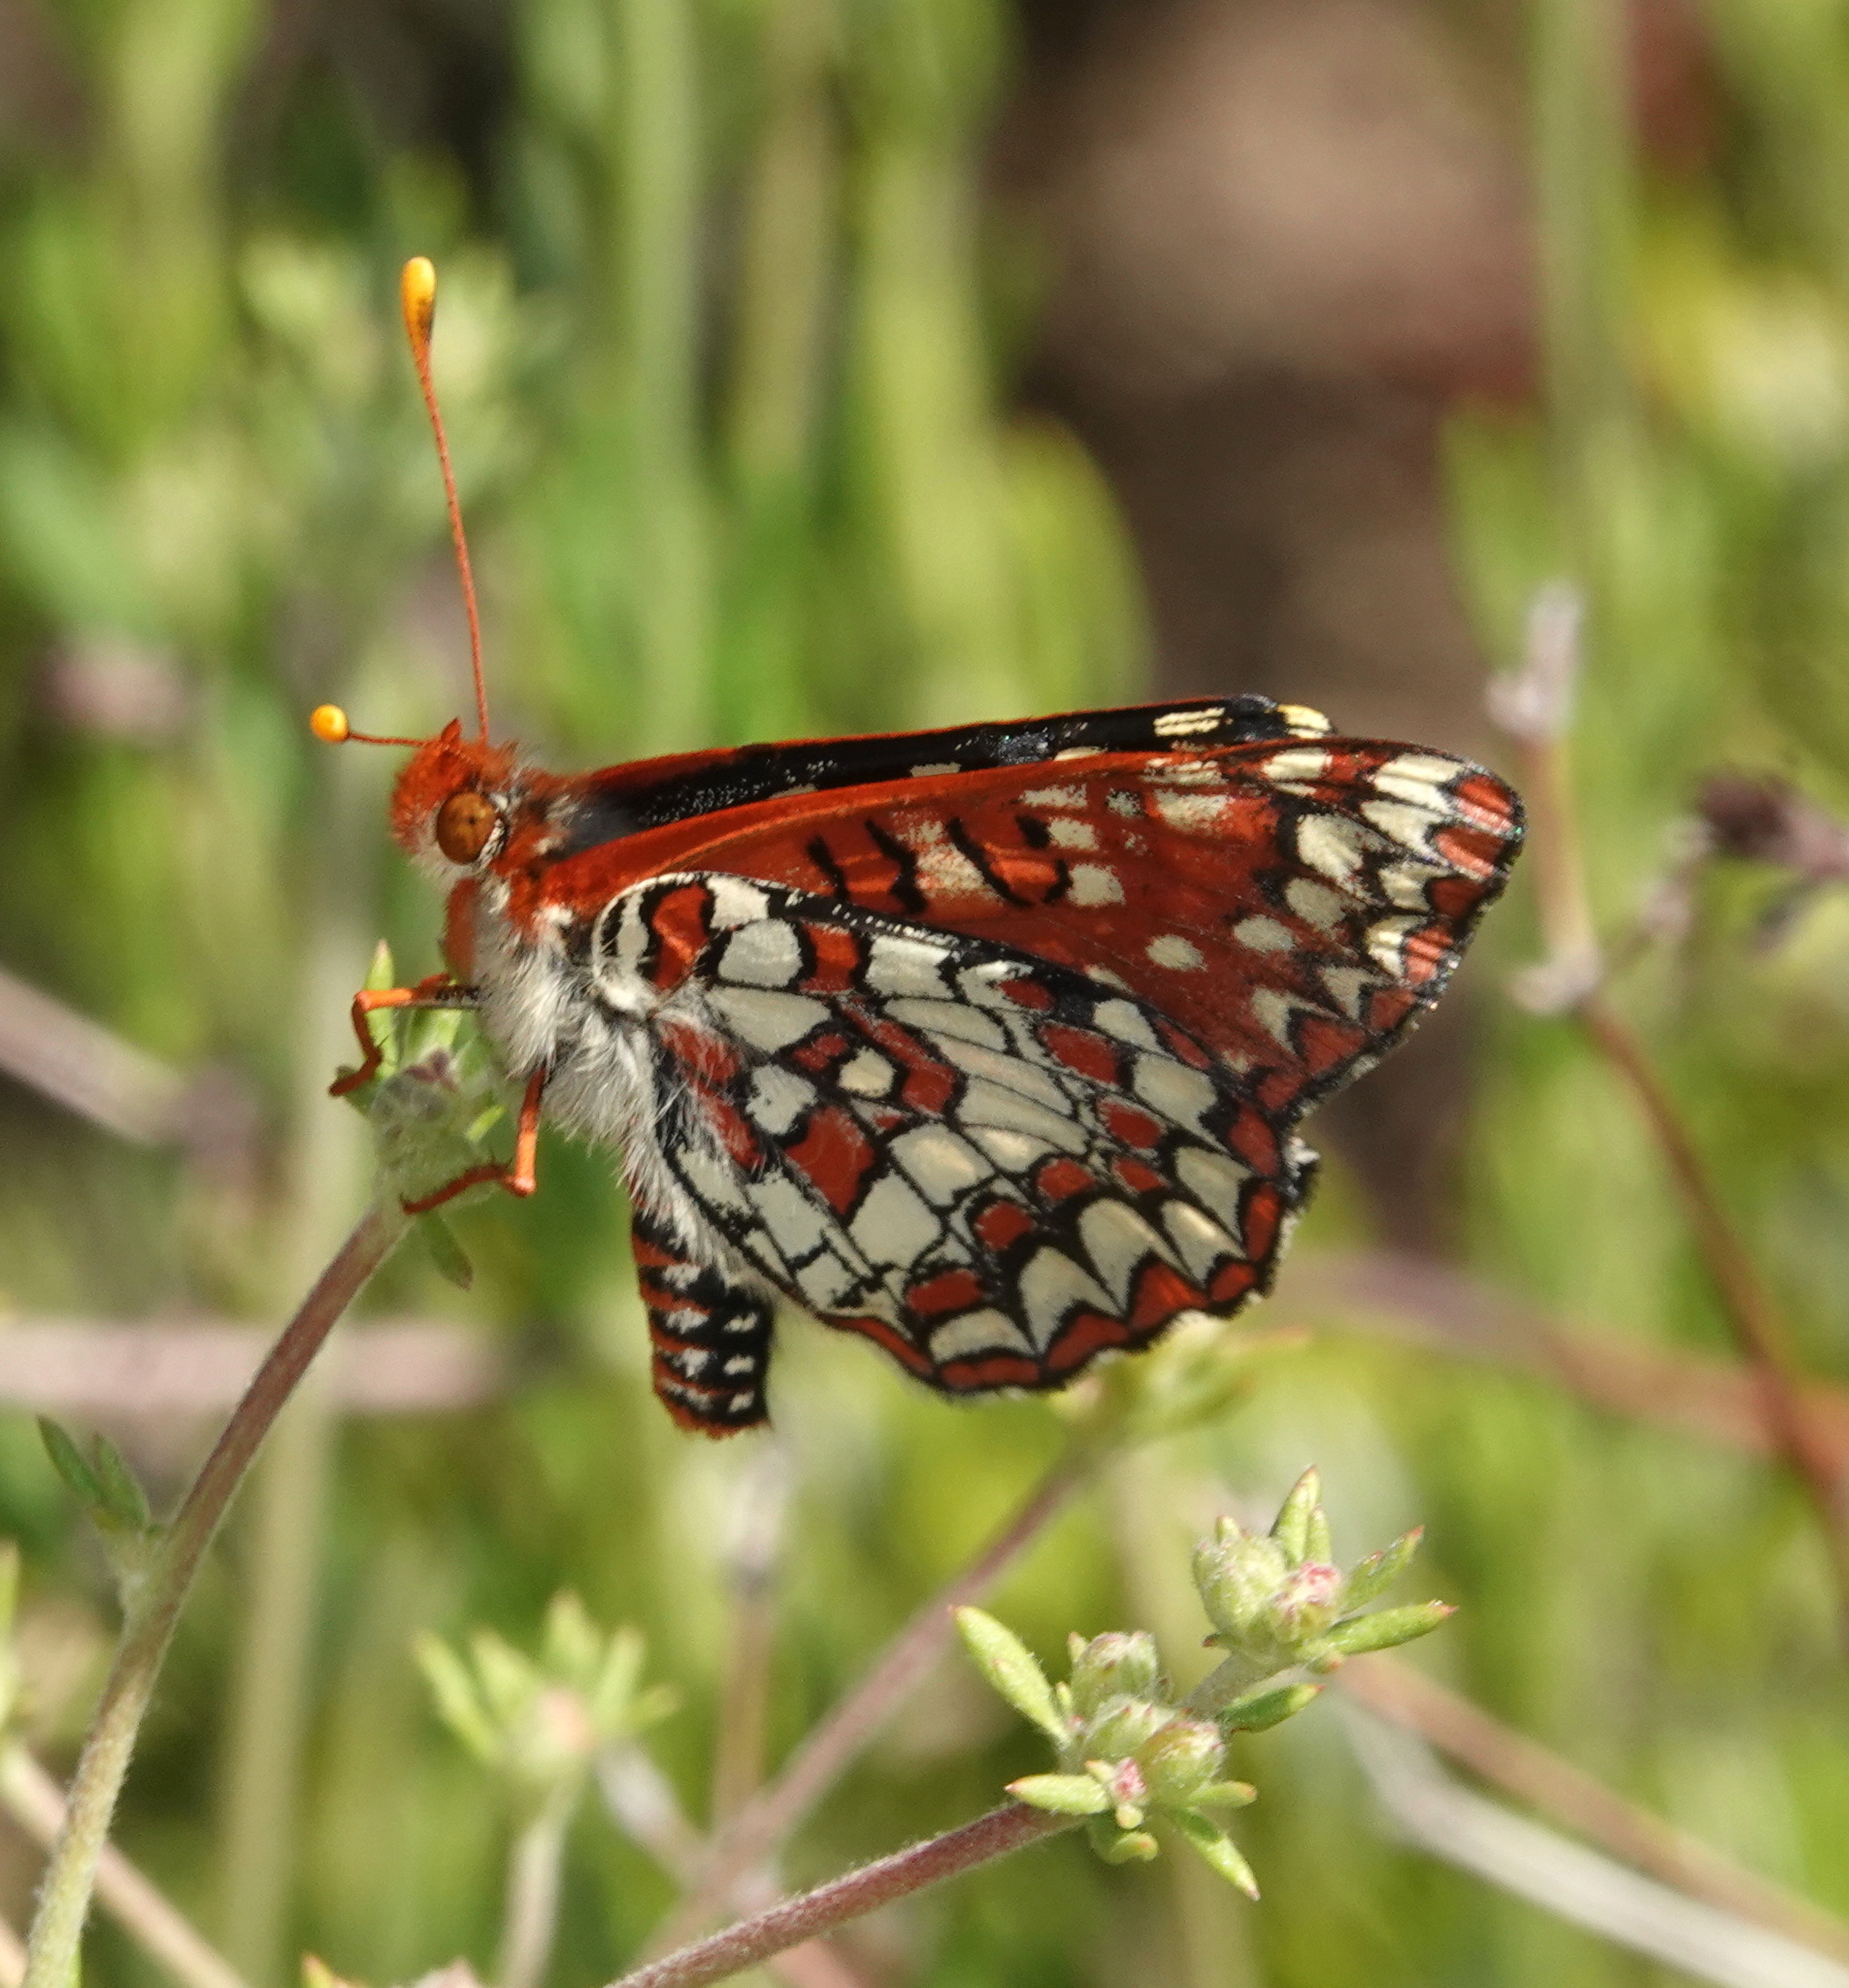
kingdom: Animalia
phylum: Arthropoda
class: Insecta
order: Lepidoptera
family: Nymphalidae
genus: Occidryas
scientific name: Occidryas chalcedona
